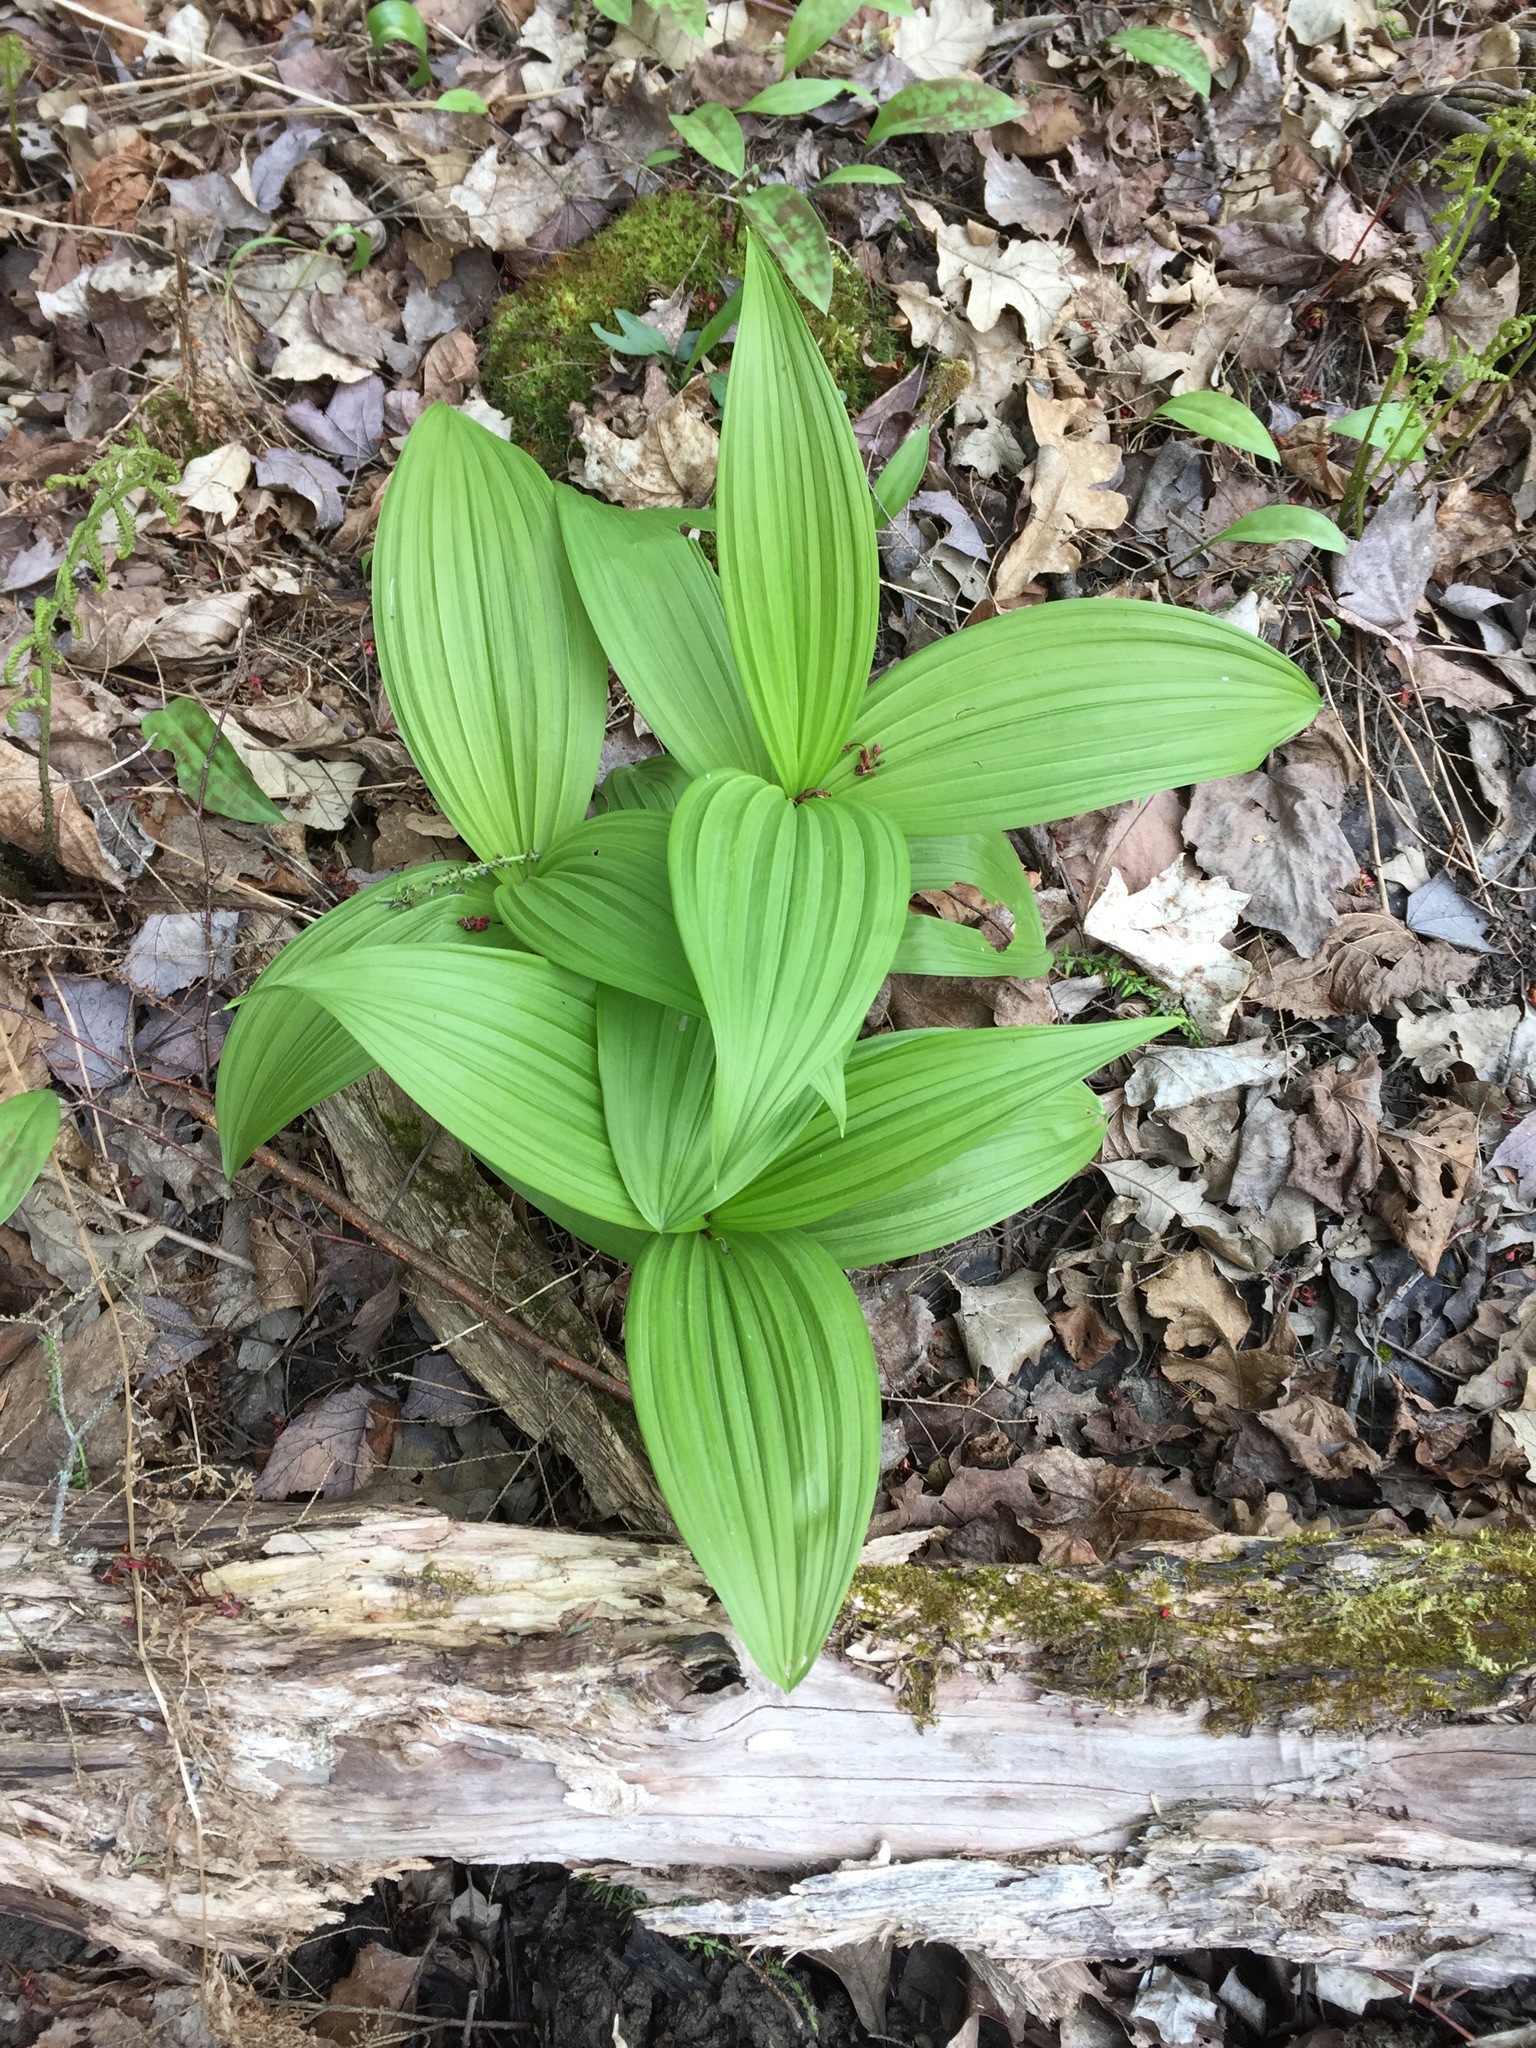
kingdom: Plantae
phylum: Tracheophyta
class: Liliopsida
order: Liliales
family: Melanthiaceae
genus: Veratrum
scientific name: Veratrum viride
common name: American false hellebore
